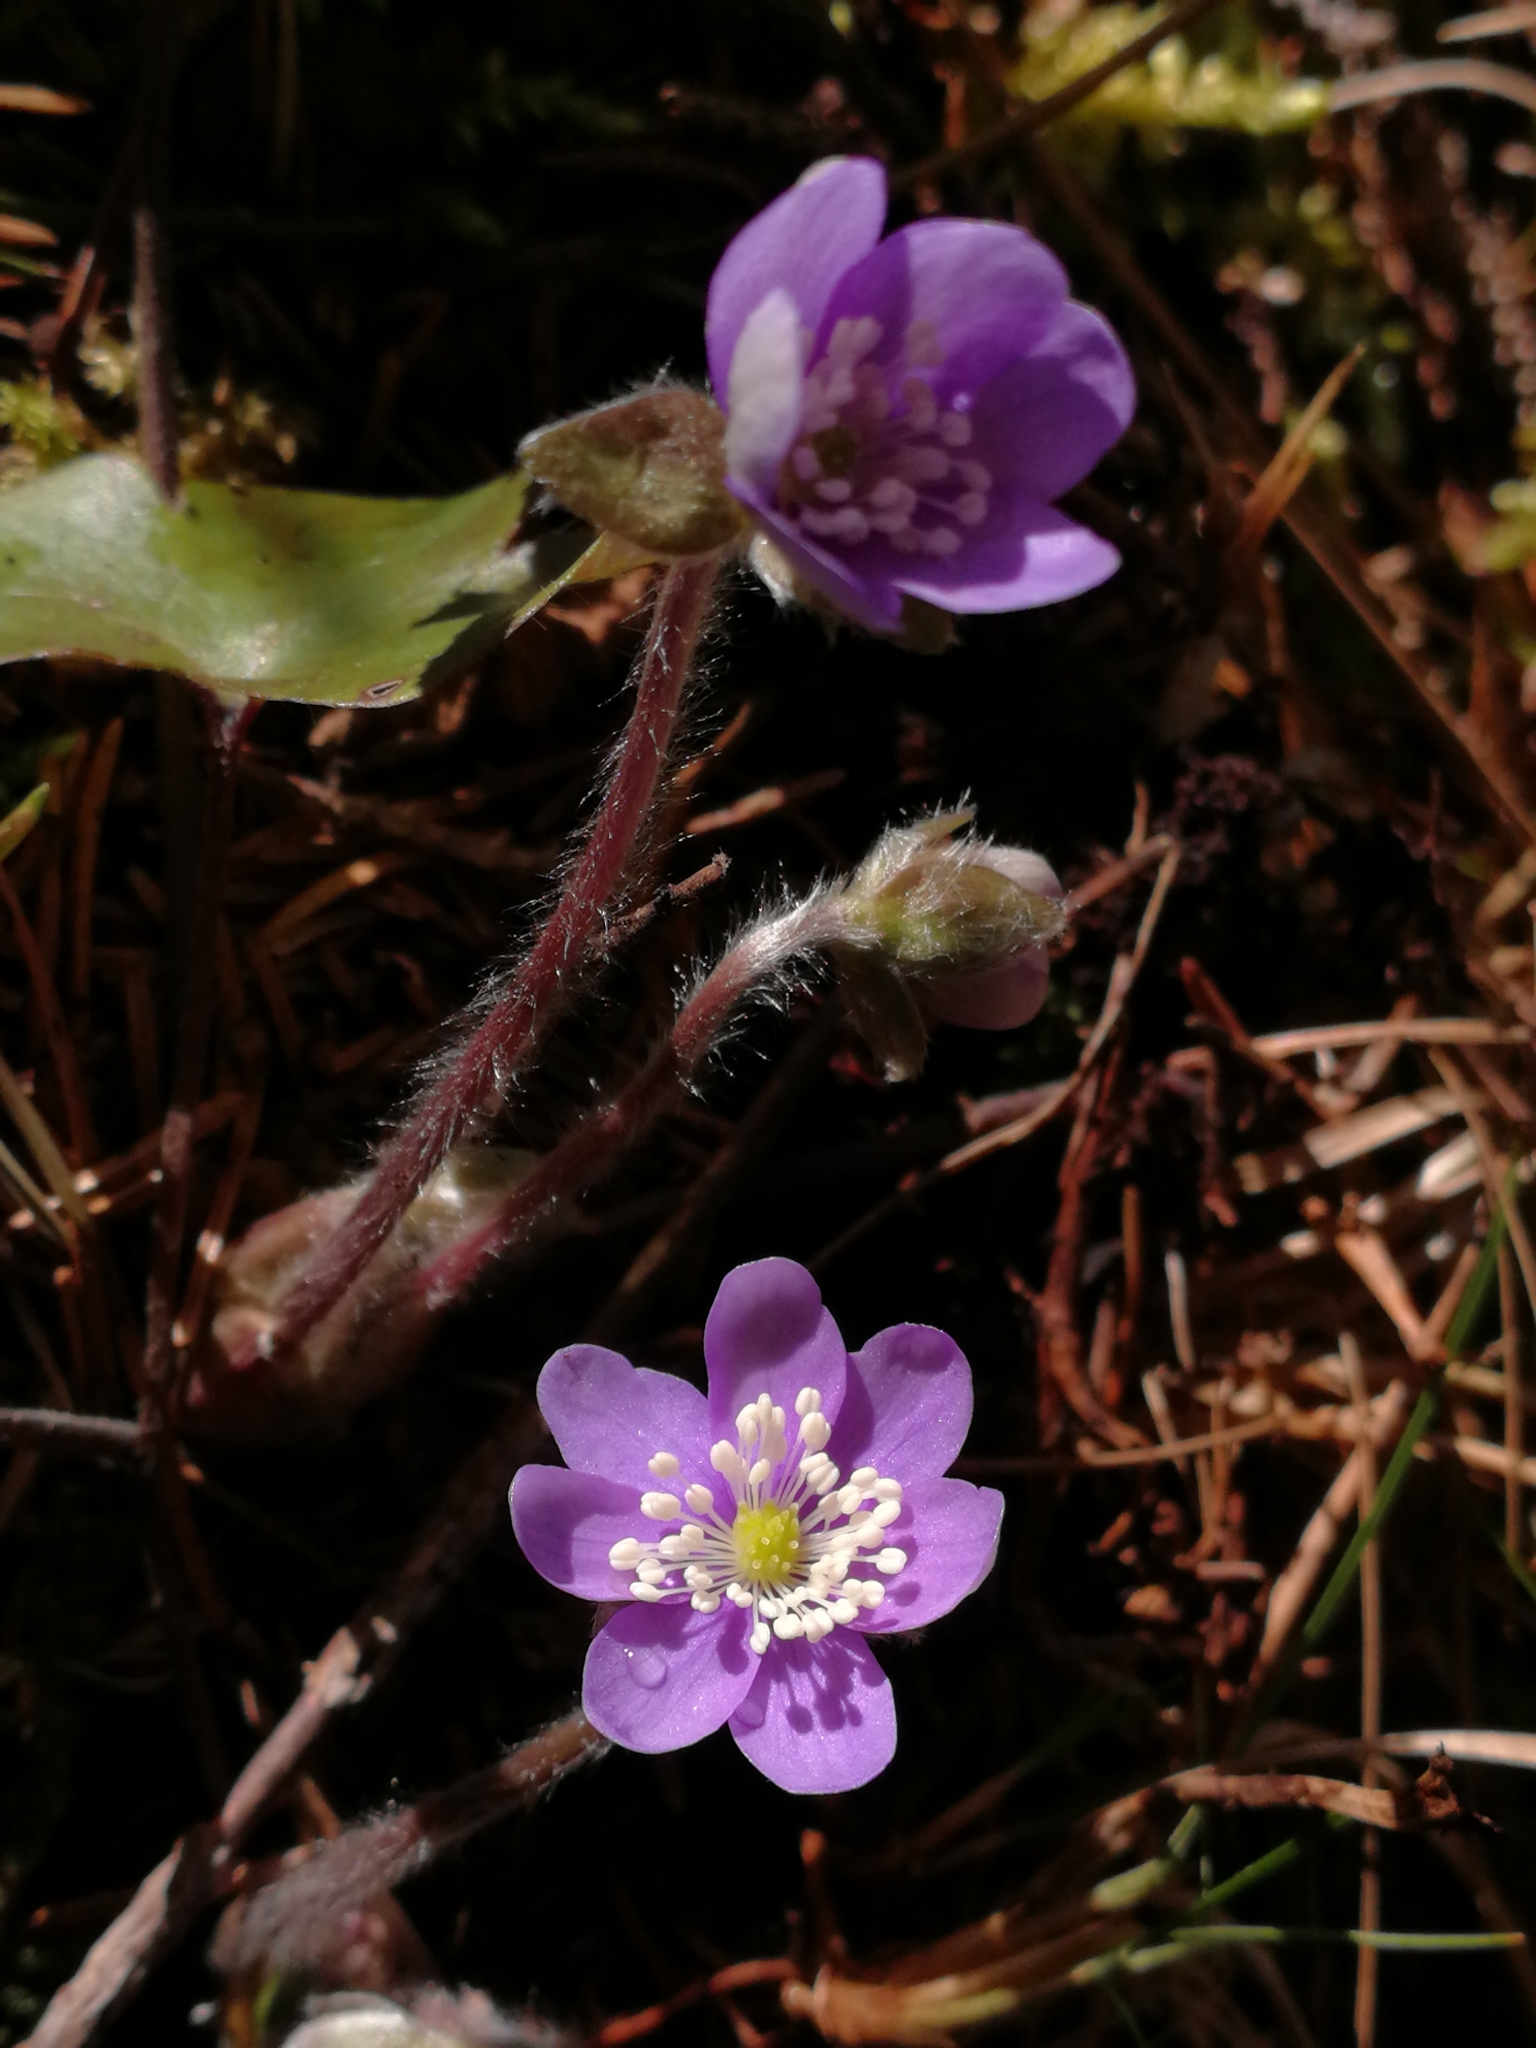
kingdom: Plantae
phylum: Tracheophyta
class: Magnoliopsida
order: Ranunculales
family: Ranunculaceae
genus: Hepatica
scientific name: Hepatica nobilis
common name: Liverleaf
